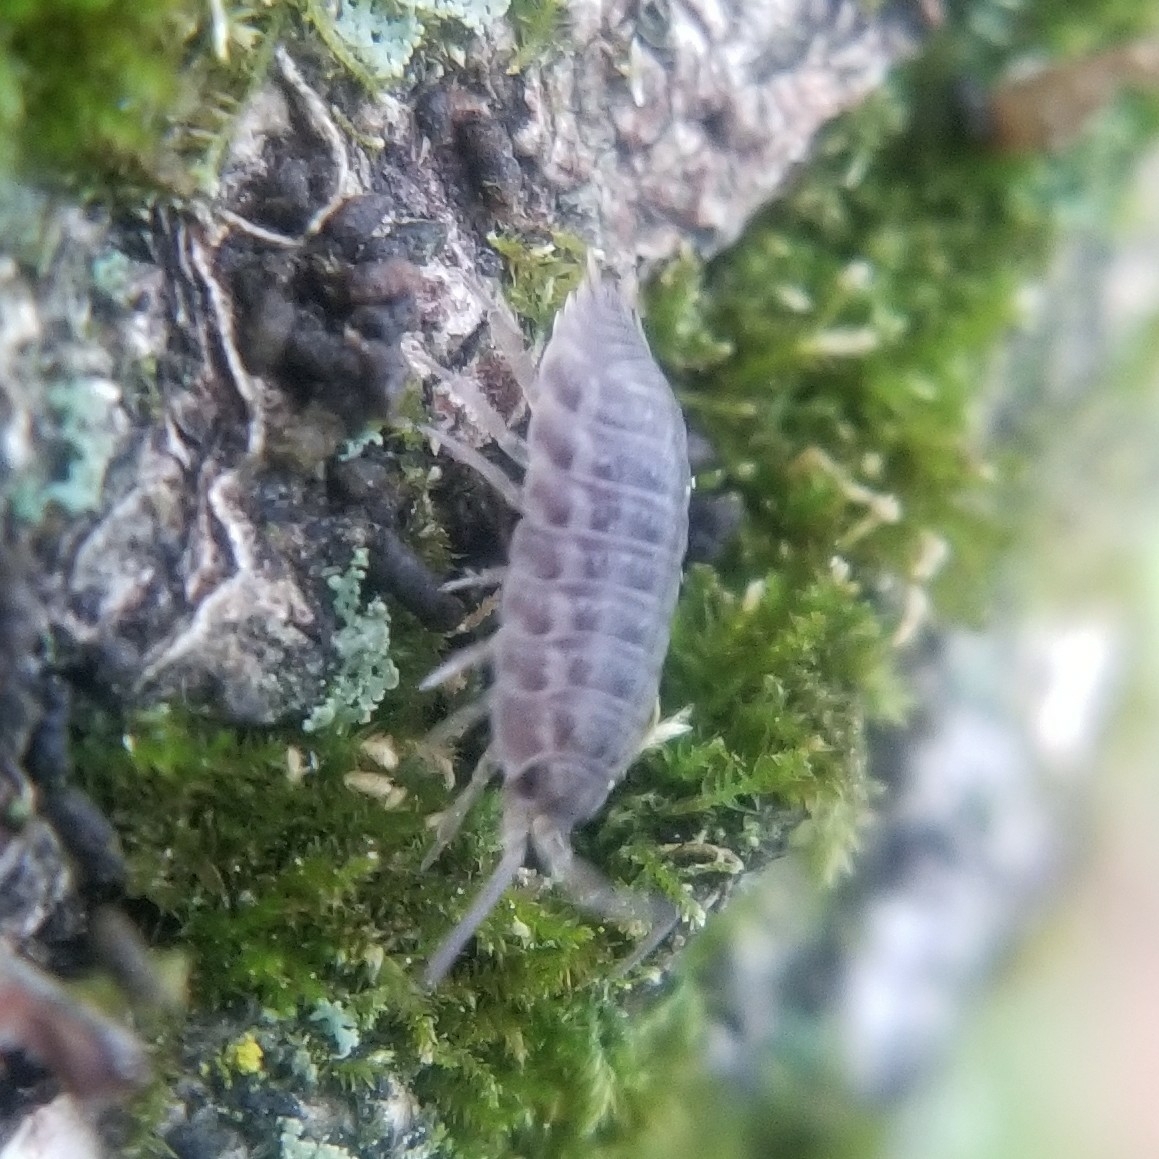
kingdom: Animalia
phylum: Arthropoda
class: Malacostraca
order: Isopoda
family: Trachelipodidae
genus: Trachelipus
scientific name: Trachelipus rathkii
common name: Isopod
